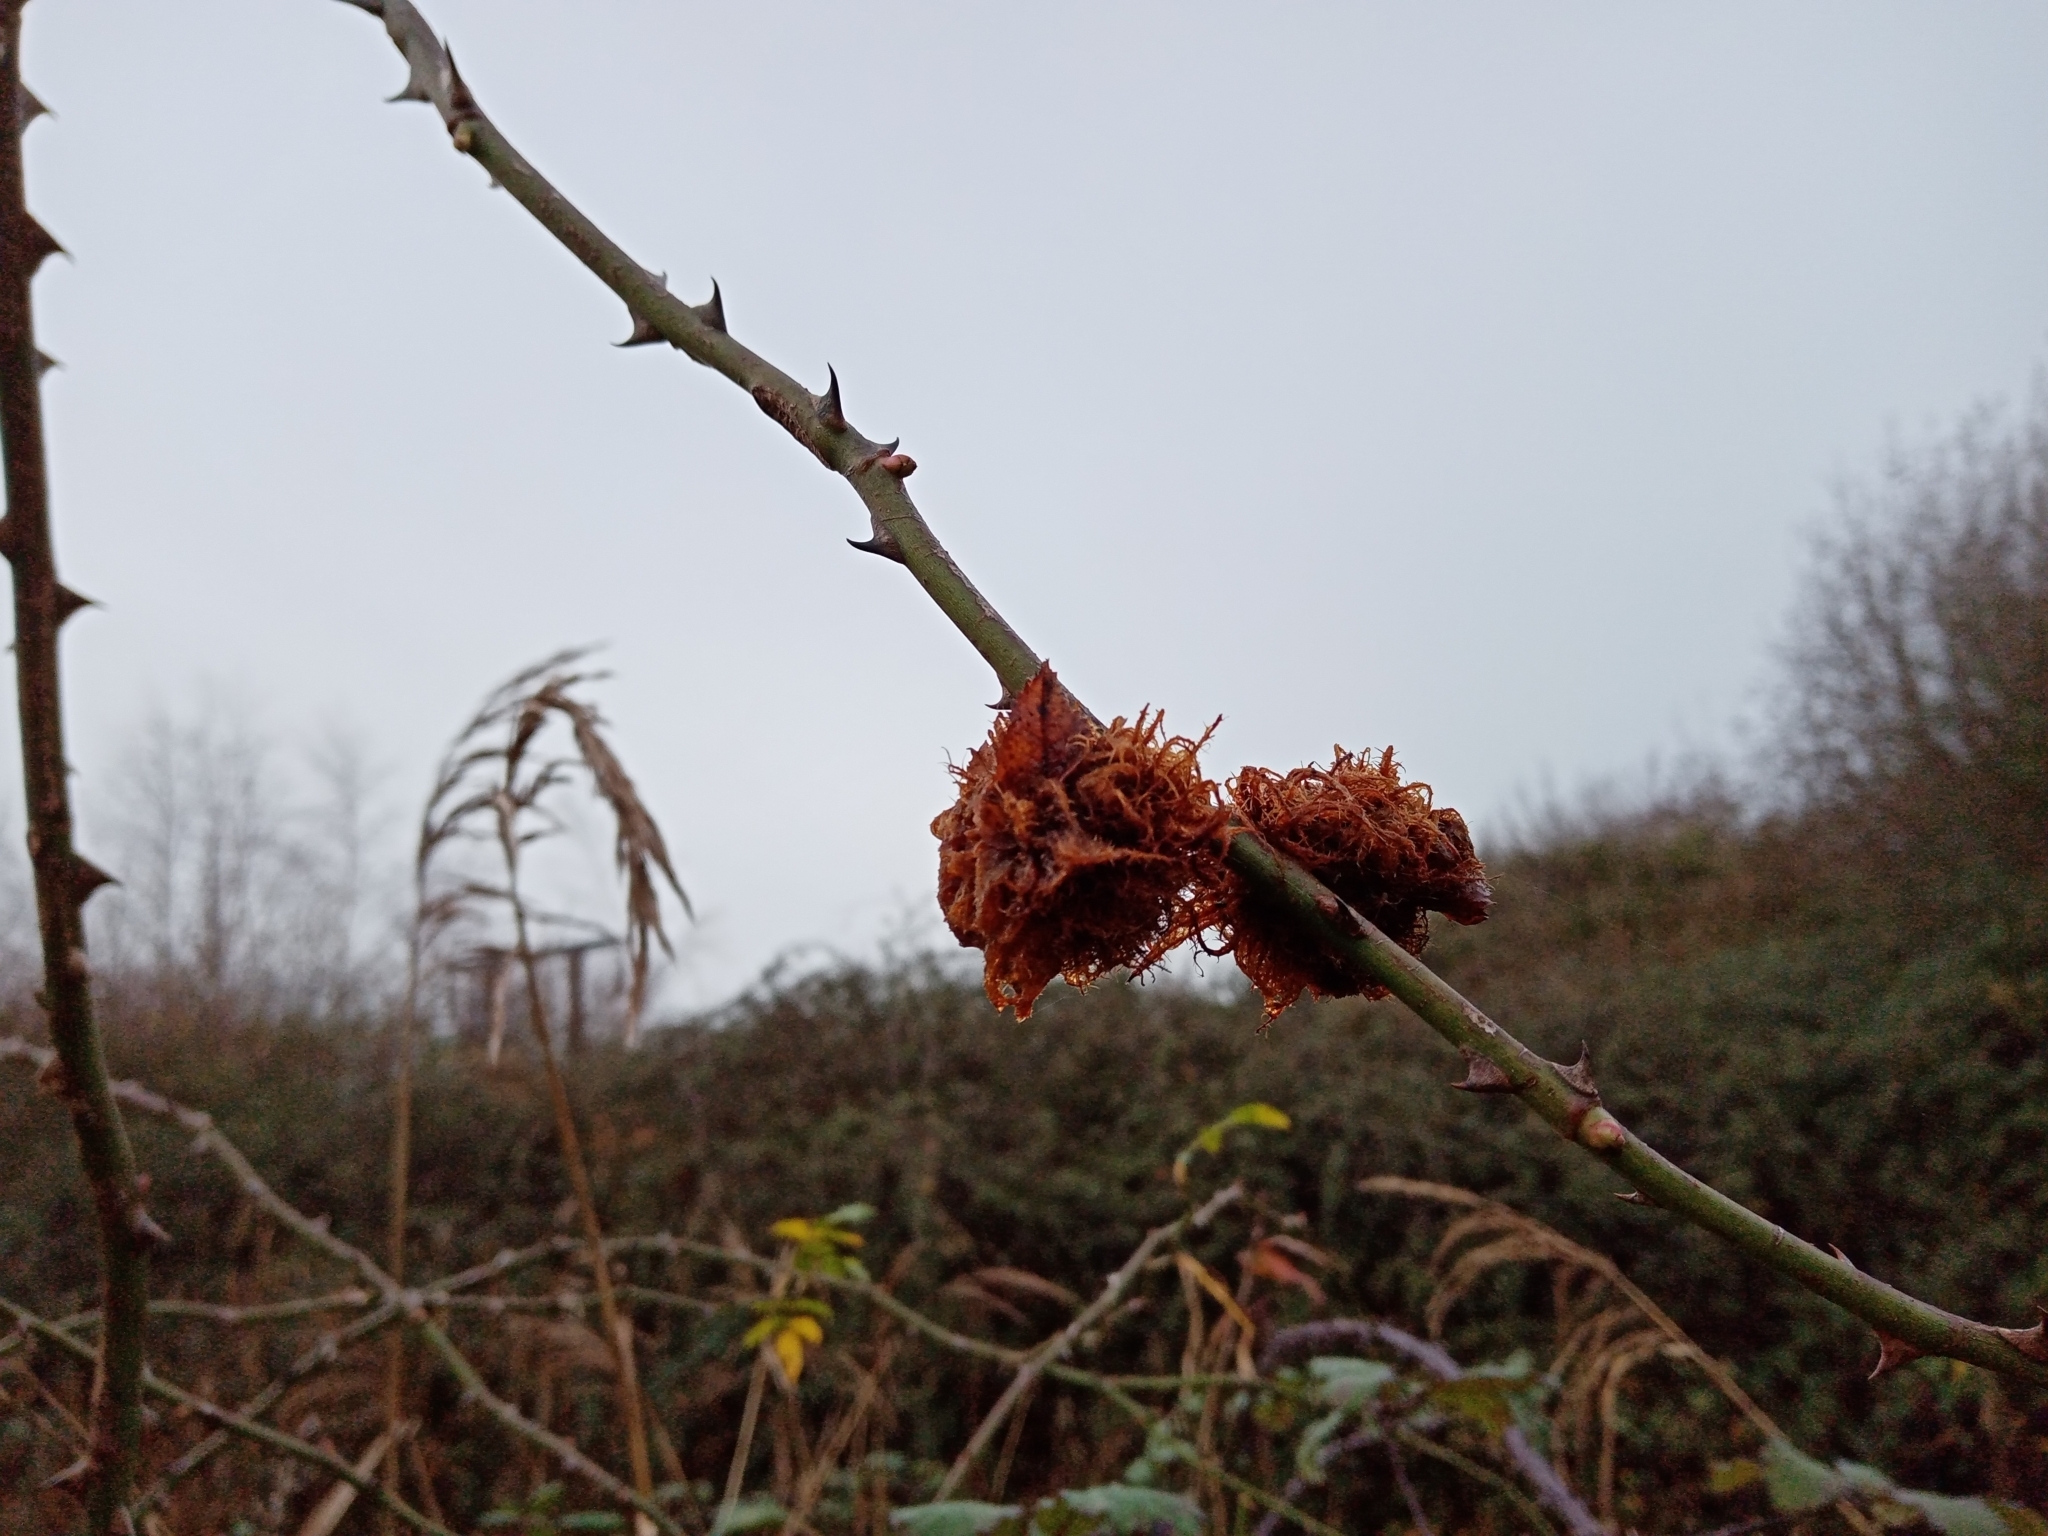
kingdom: Animalia
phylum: Arthropoda
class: Insecta
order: Hymenoptera
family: Cynipidae
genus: Diplolepis
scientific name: Diplolepis rosae
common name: Bedeguar gall
